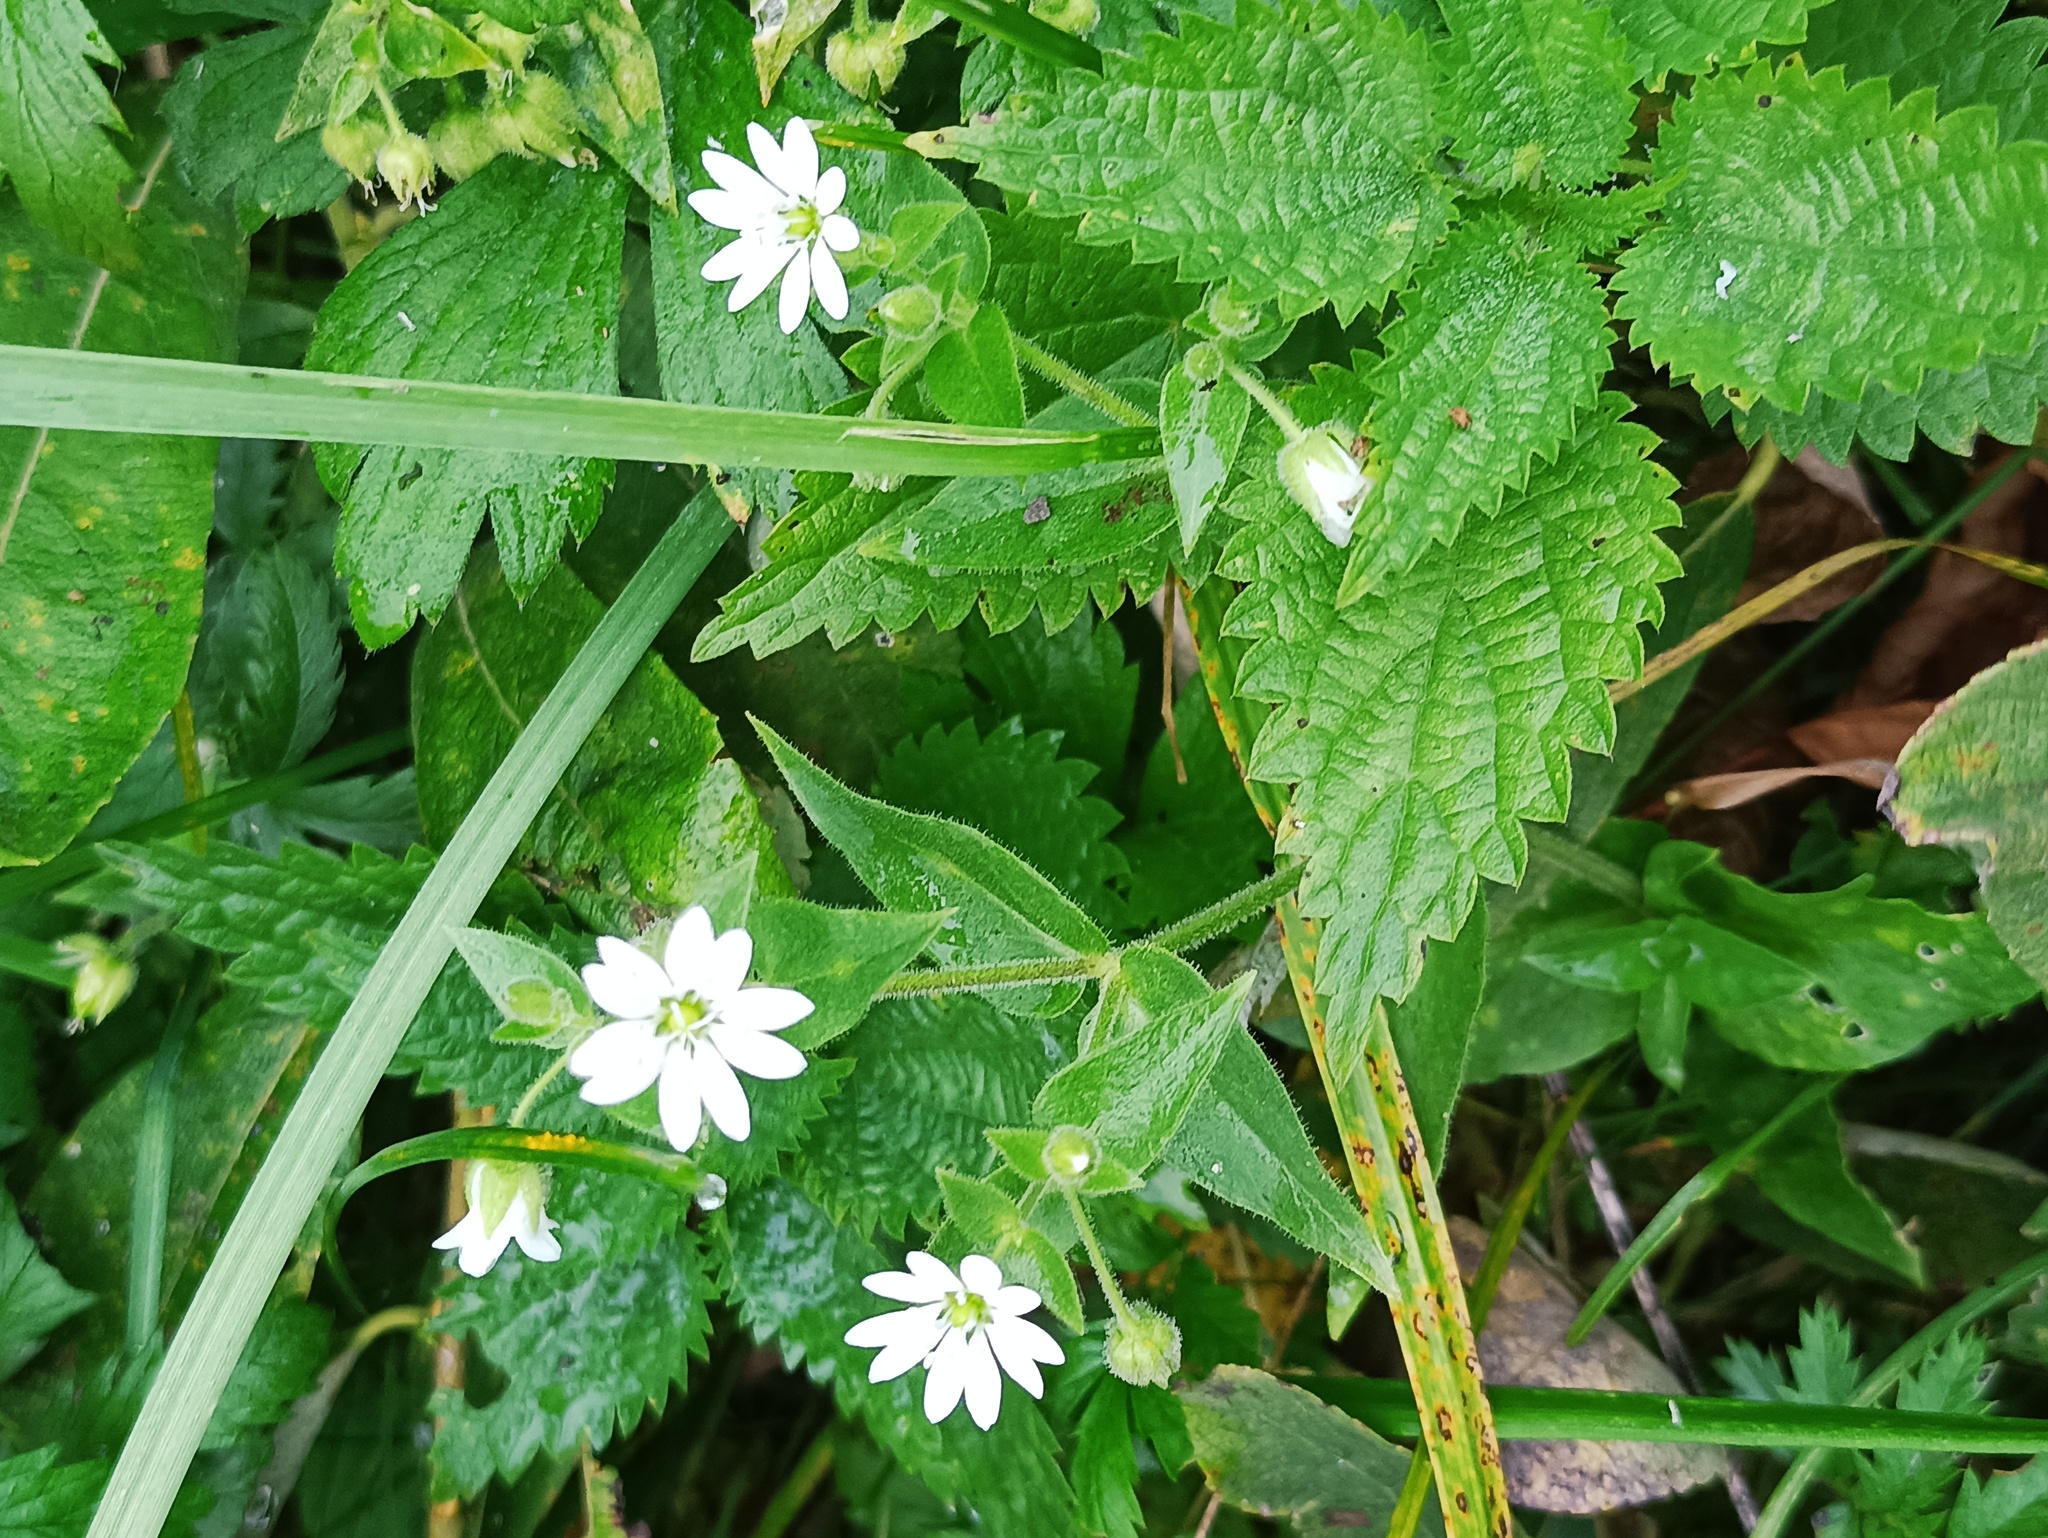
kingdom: Plantae
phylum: Tracheophyta
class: Magnoliopsida
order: Caryophyllales
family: Caryophyllaceae
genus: Stellaria
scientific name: Stellaria aquatica
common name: Water chickweed
